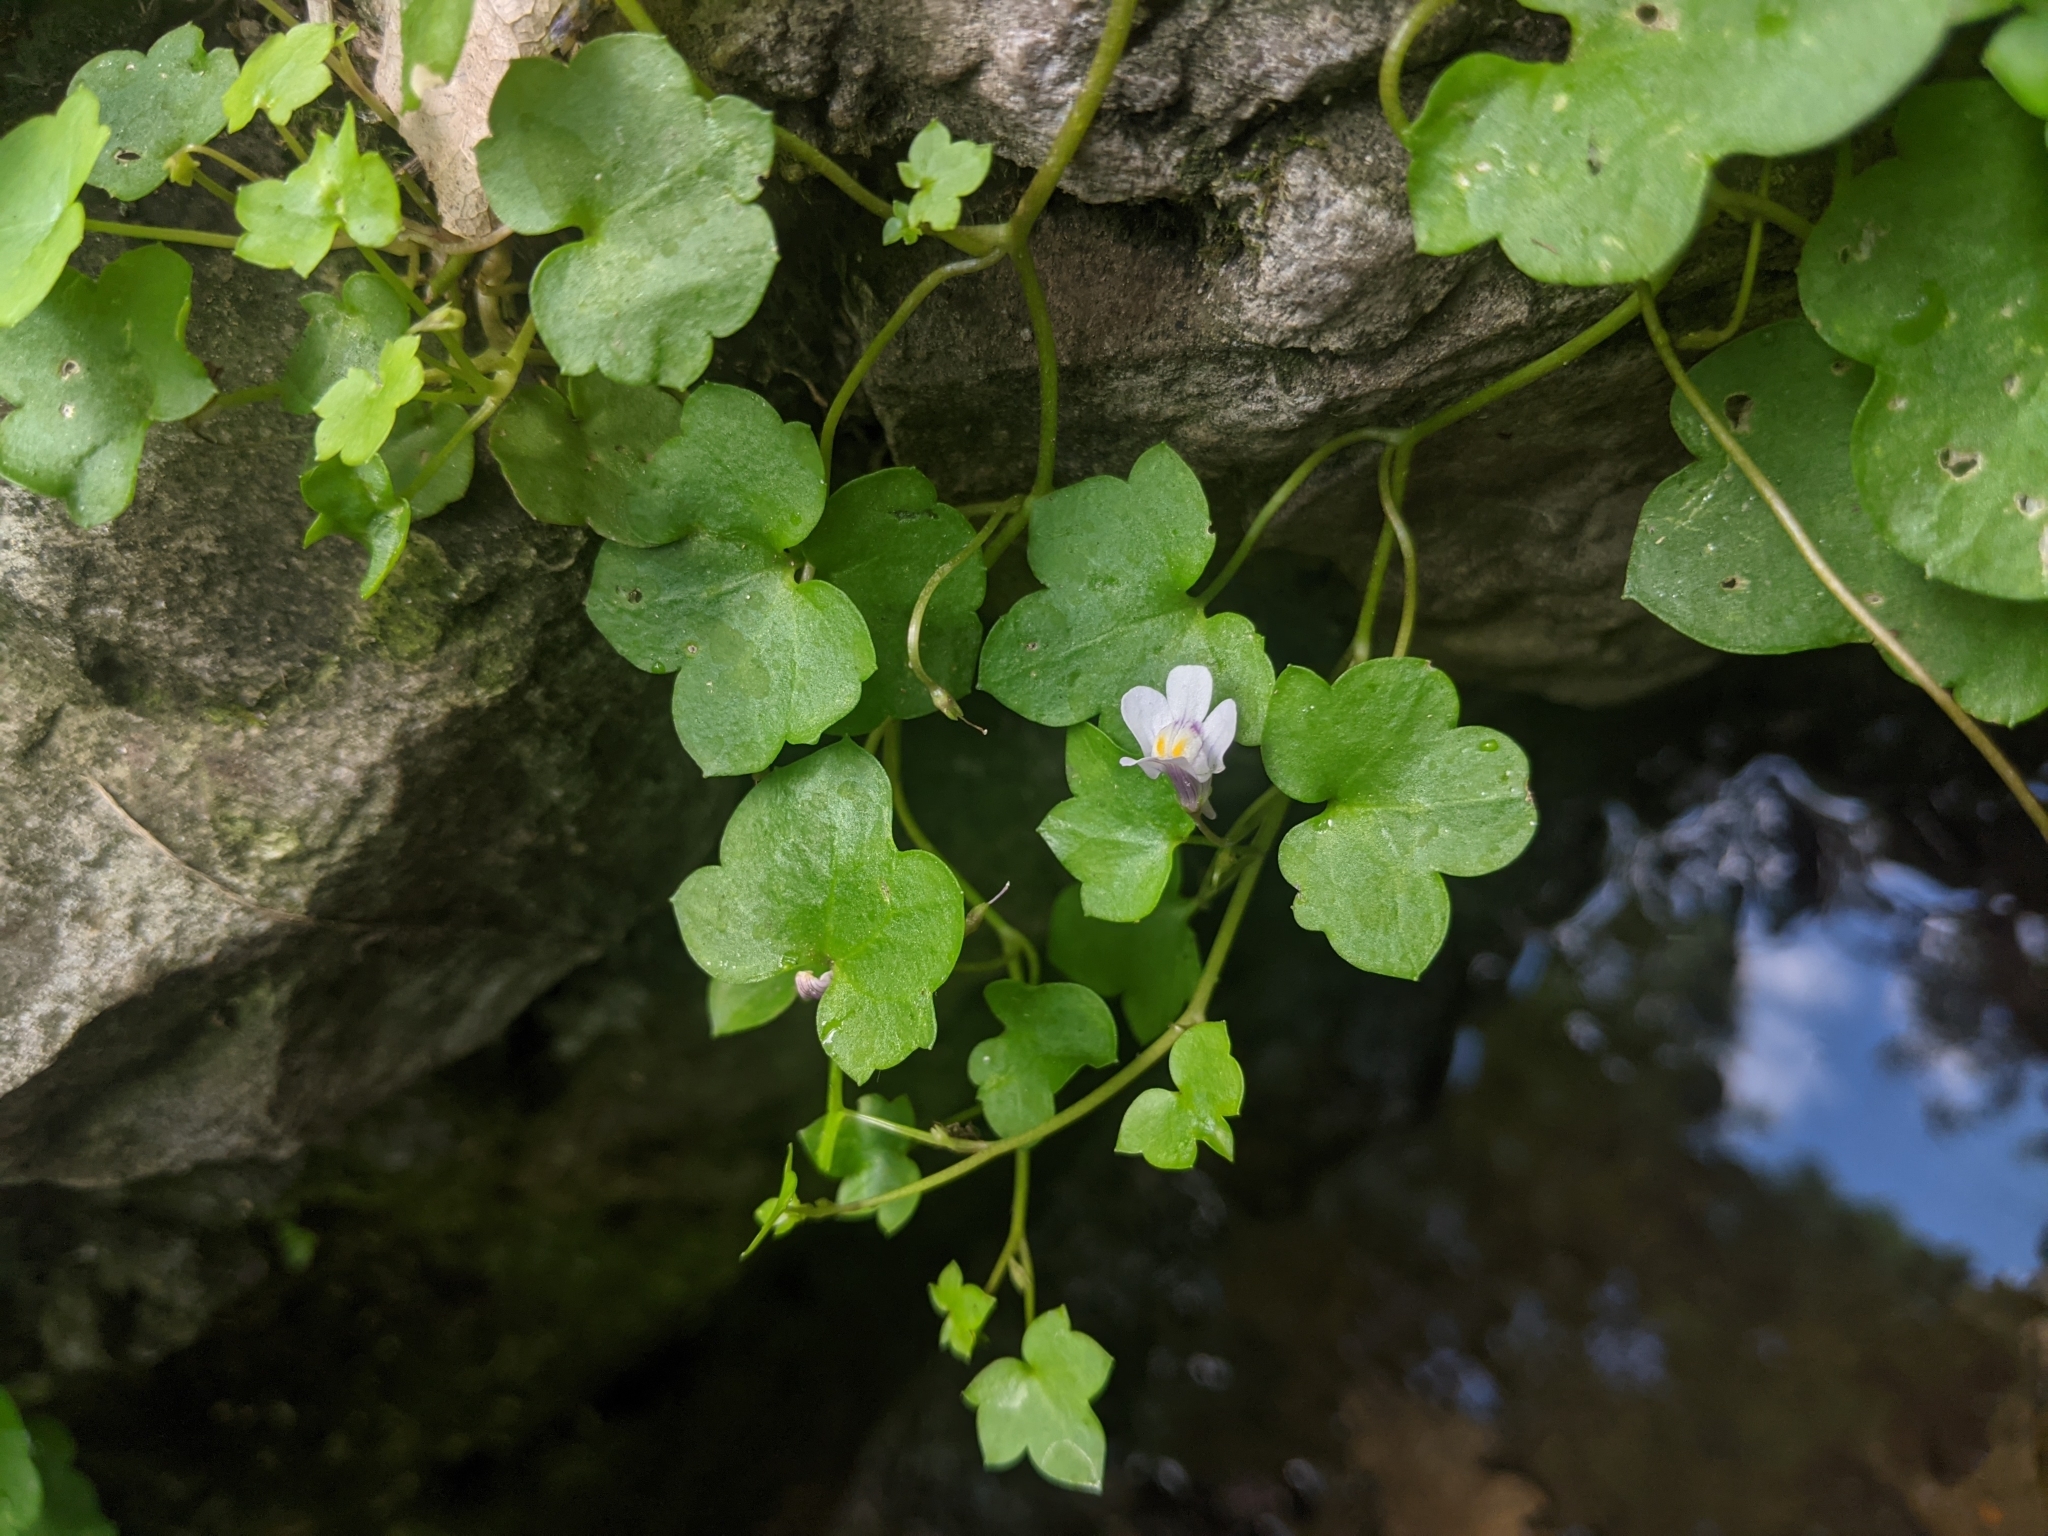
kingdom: Plantae
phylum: Tracheophyta
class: Magnoliopsida
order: Lamiales
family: Plantaginaceae
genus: Cymbalaria
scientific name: Cymbalaria muralis
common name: Ivy-leaved toadflax
